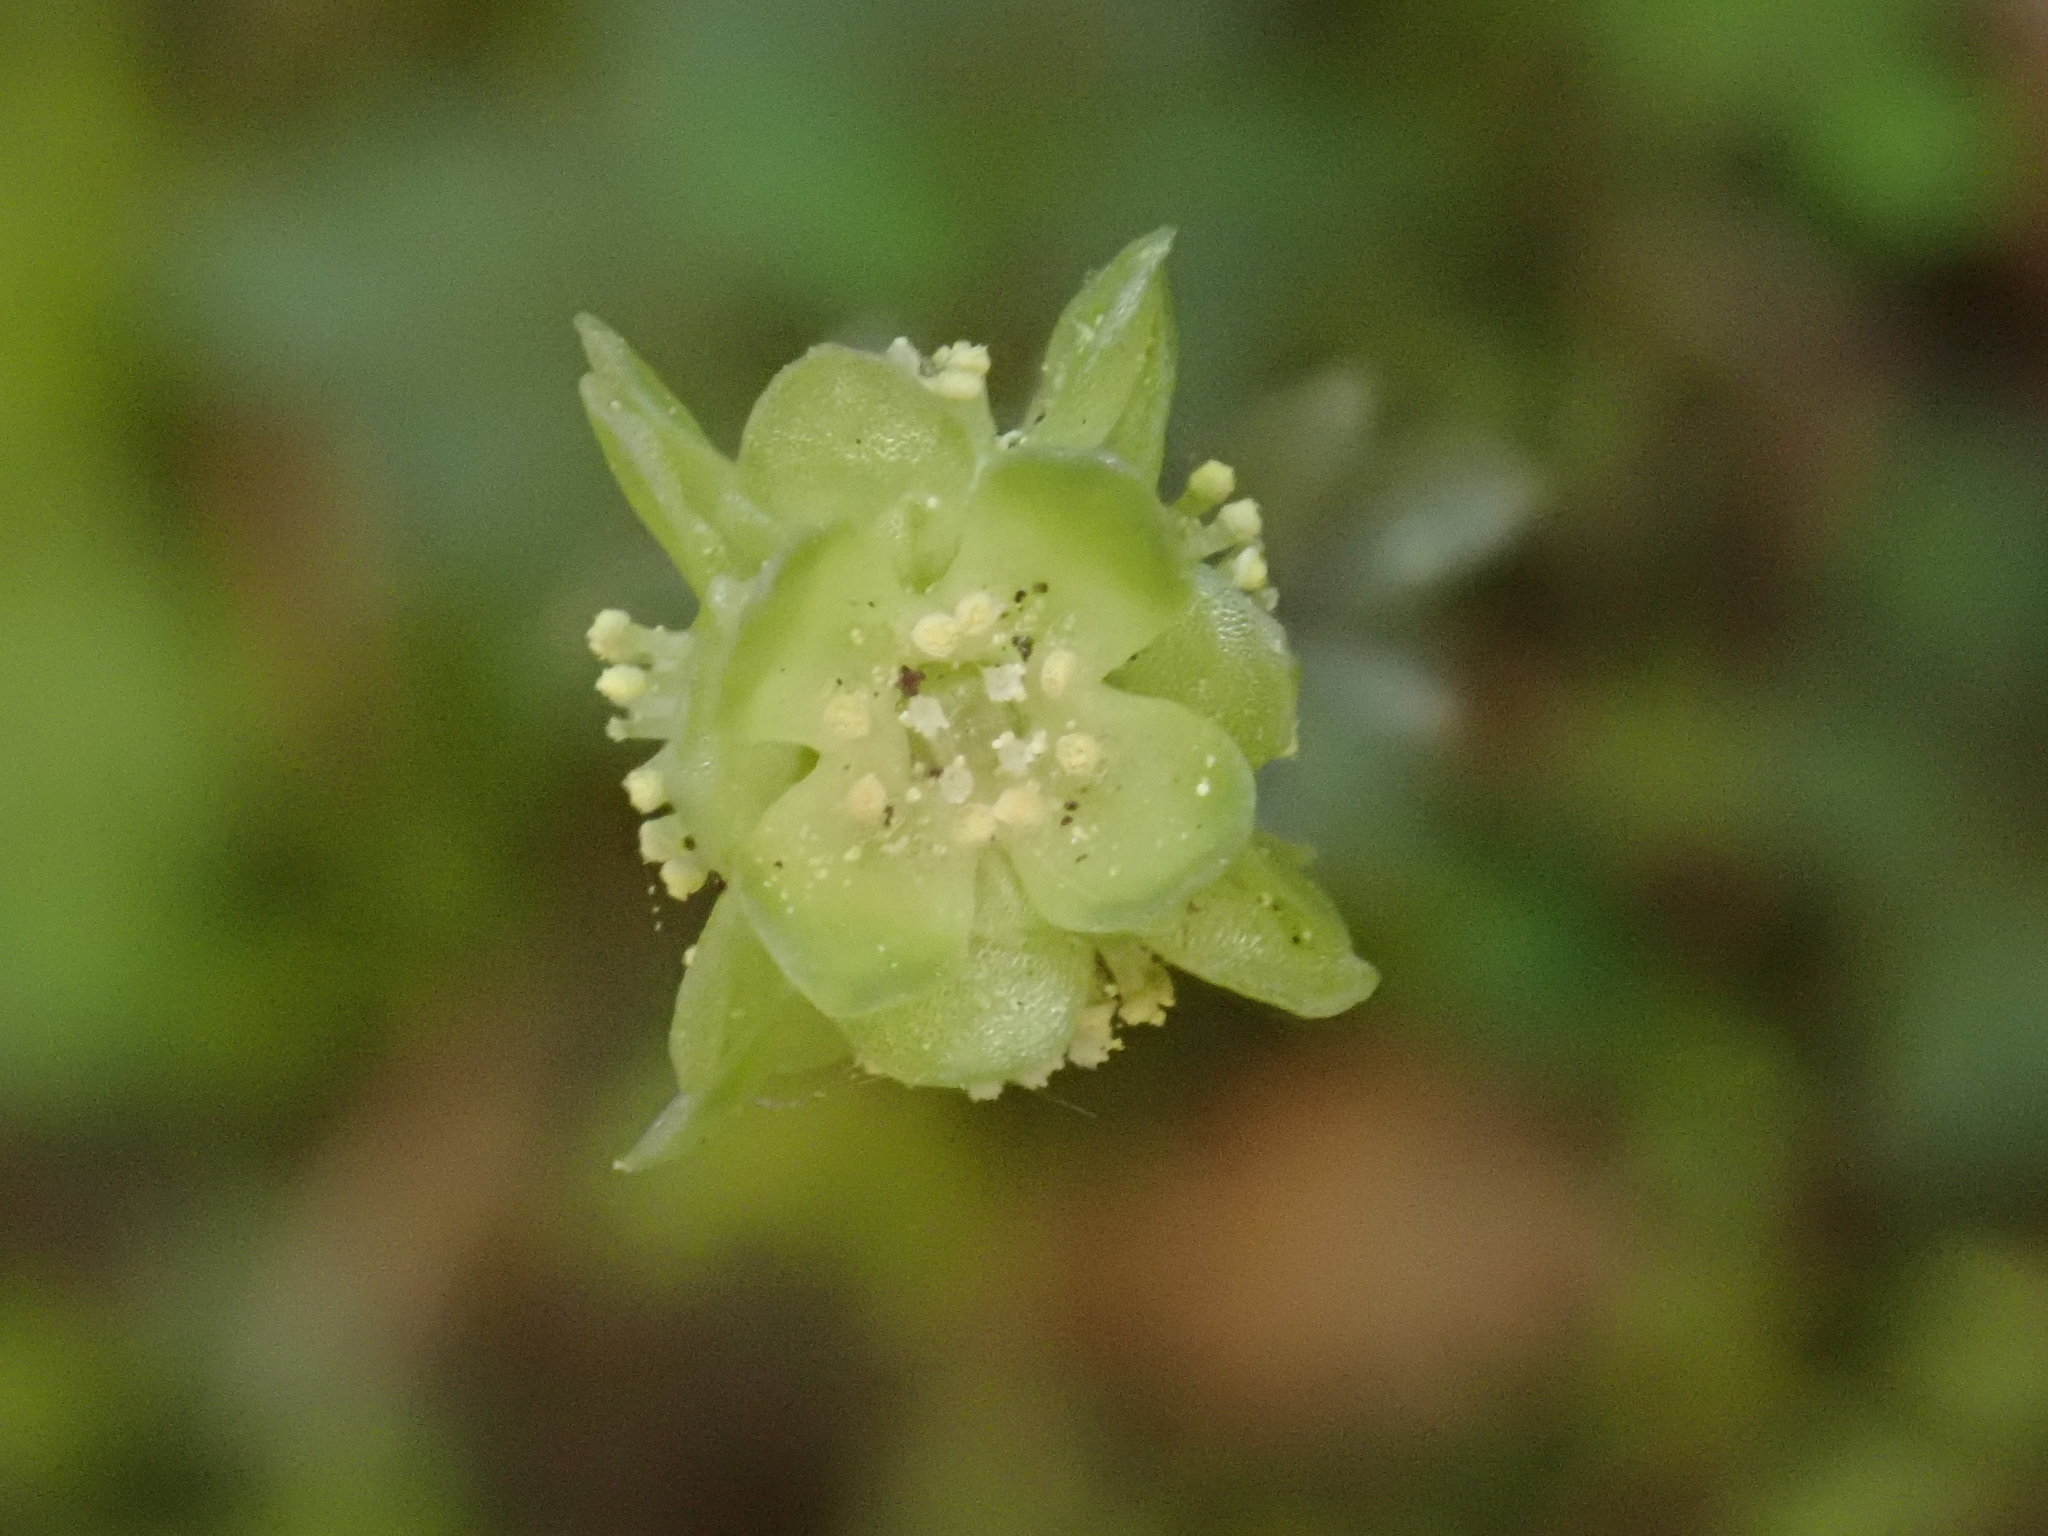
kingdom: Plantae
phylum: Tracheophyta
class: Magnoliopsida
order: Dipsacales
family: Viburnaceae
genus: Adoxa
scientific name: Adoxa moschatellina
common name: Moschatel
